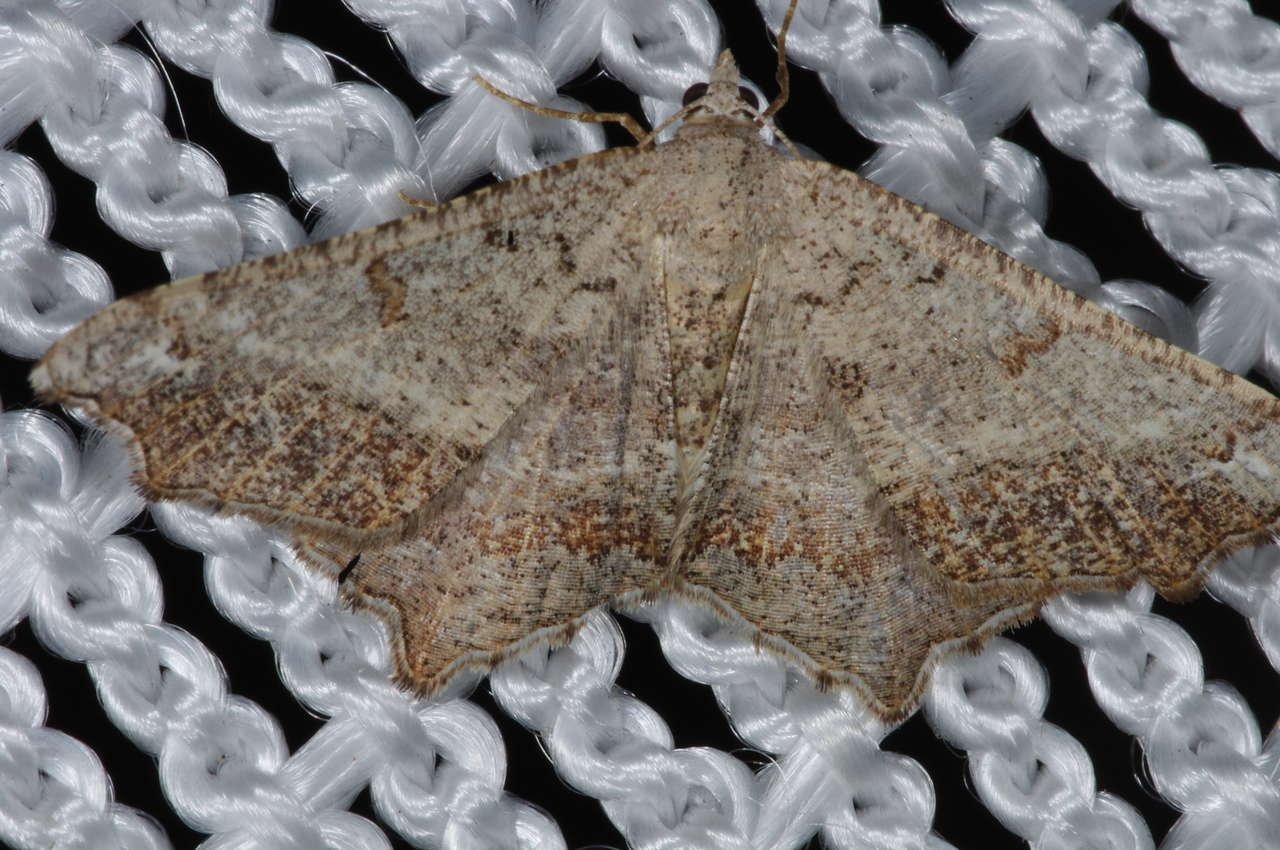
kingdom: Animalia
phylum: Arthropoda
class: Insecta
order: Lepidoptera
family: Geometridae
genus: Dissomorphia
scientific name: Dissomorphia australiaria
